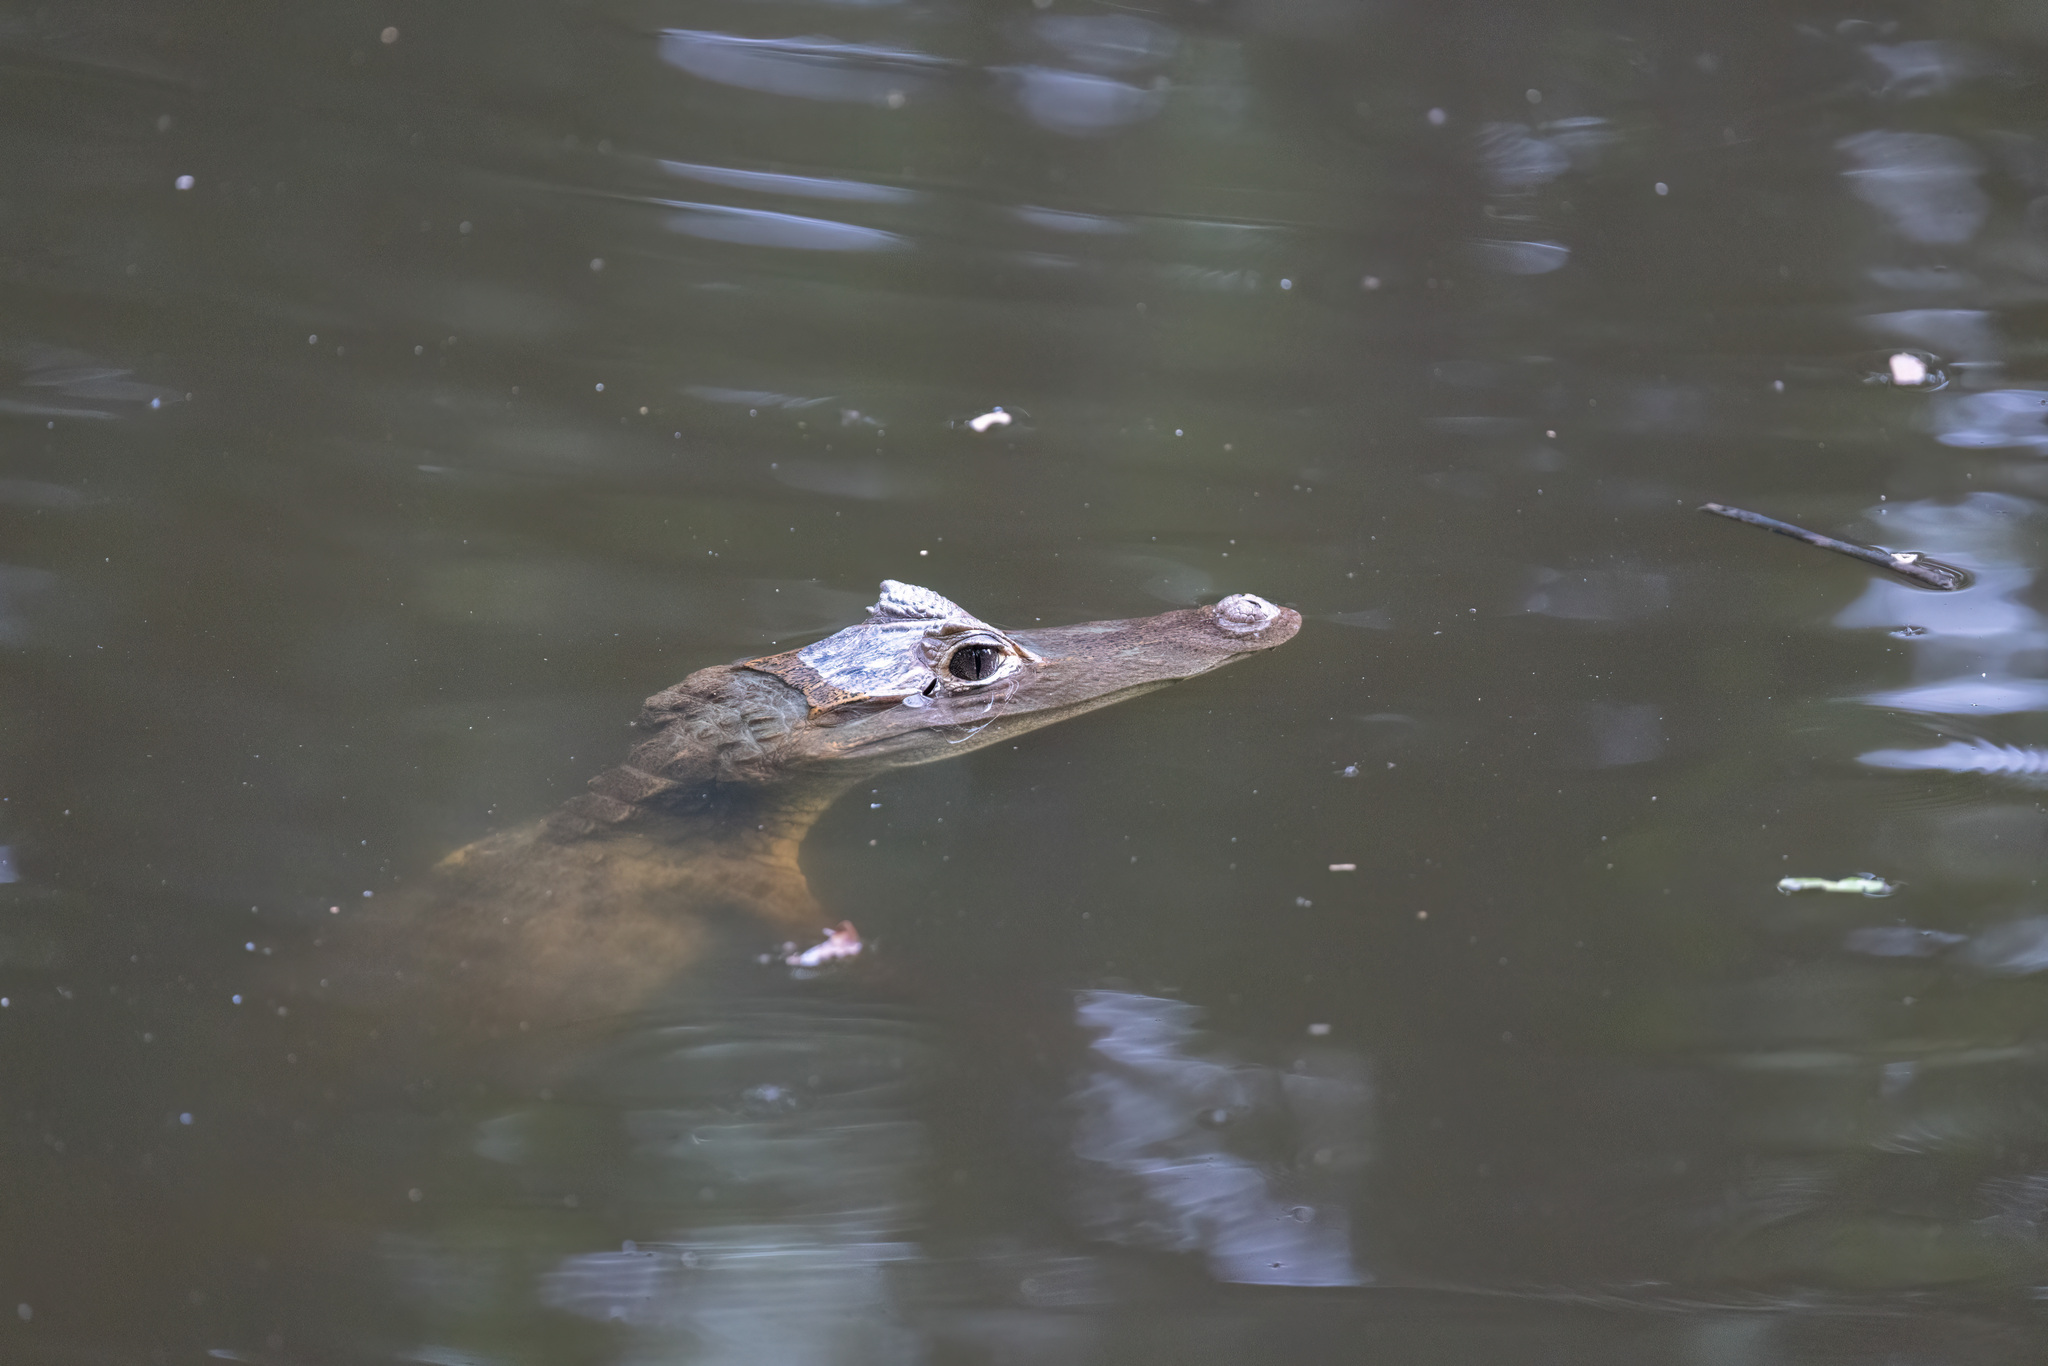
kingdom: Animalia
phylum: Chordata
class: Crocodylia
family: Alligatoridae
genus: Caiman
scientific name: Caiman crocodilus
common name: Common caiman
